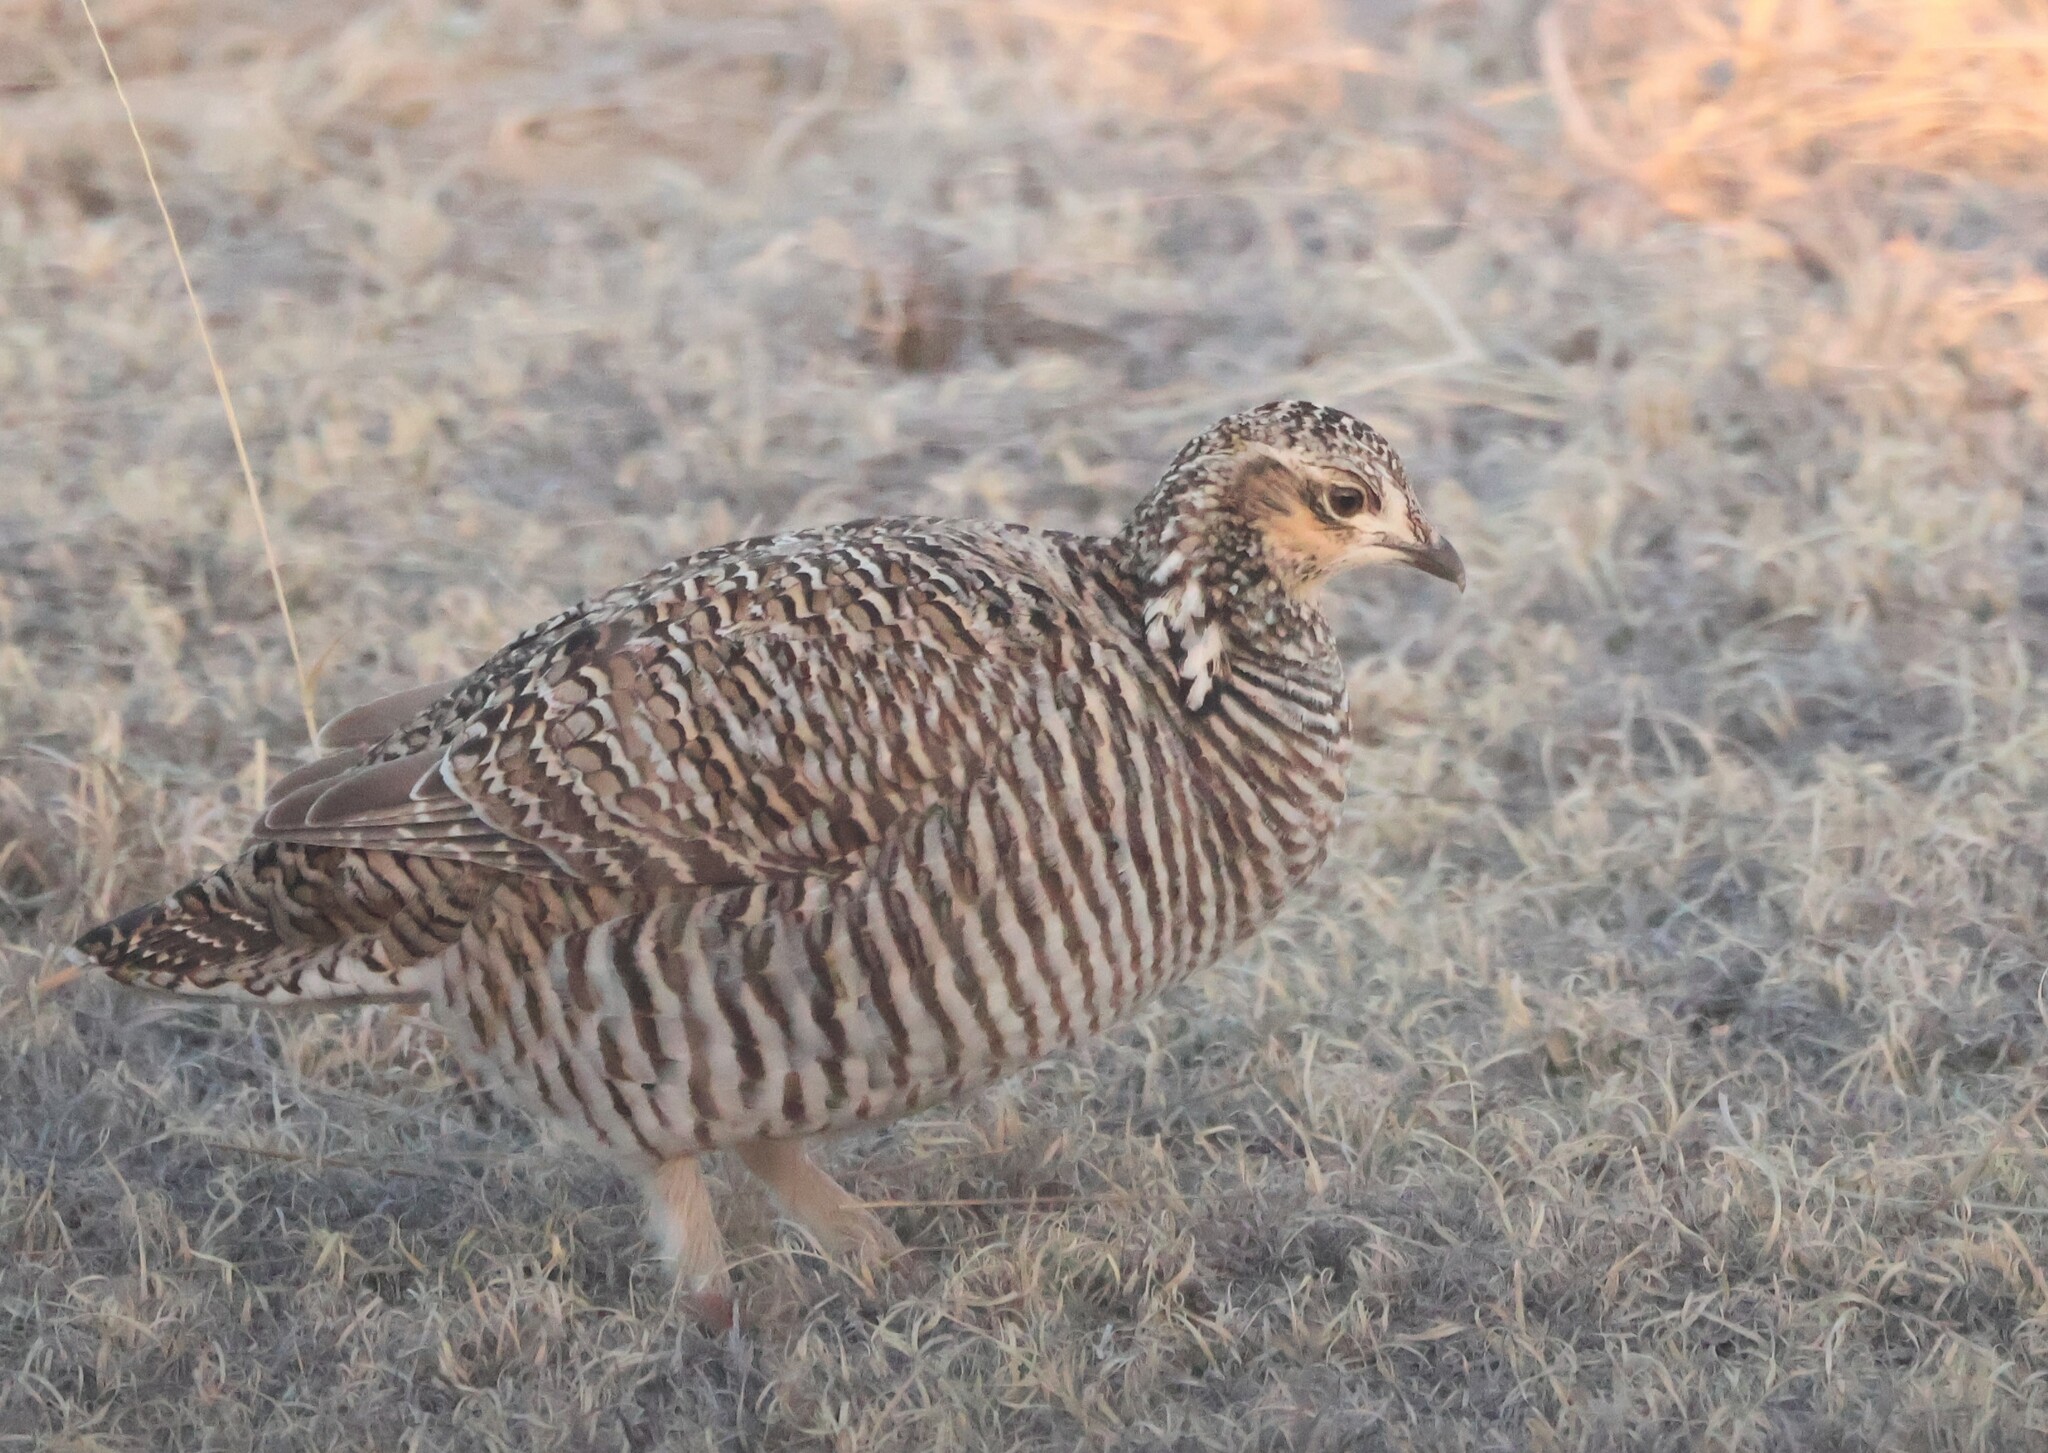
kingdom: Animalia
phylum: Chordata
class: Aves
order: Galliformes
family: Phasianidae
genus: Tympanuchus
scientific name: Tympanuchus pallidicinctus
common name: Lesser prairie chicken
